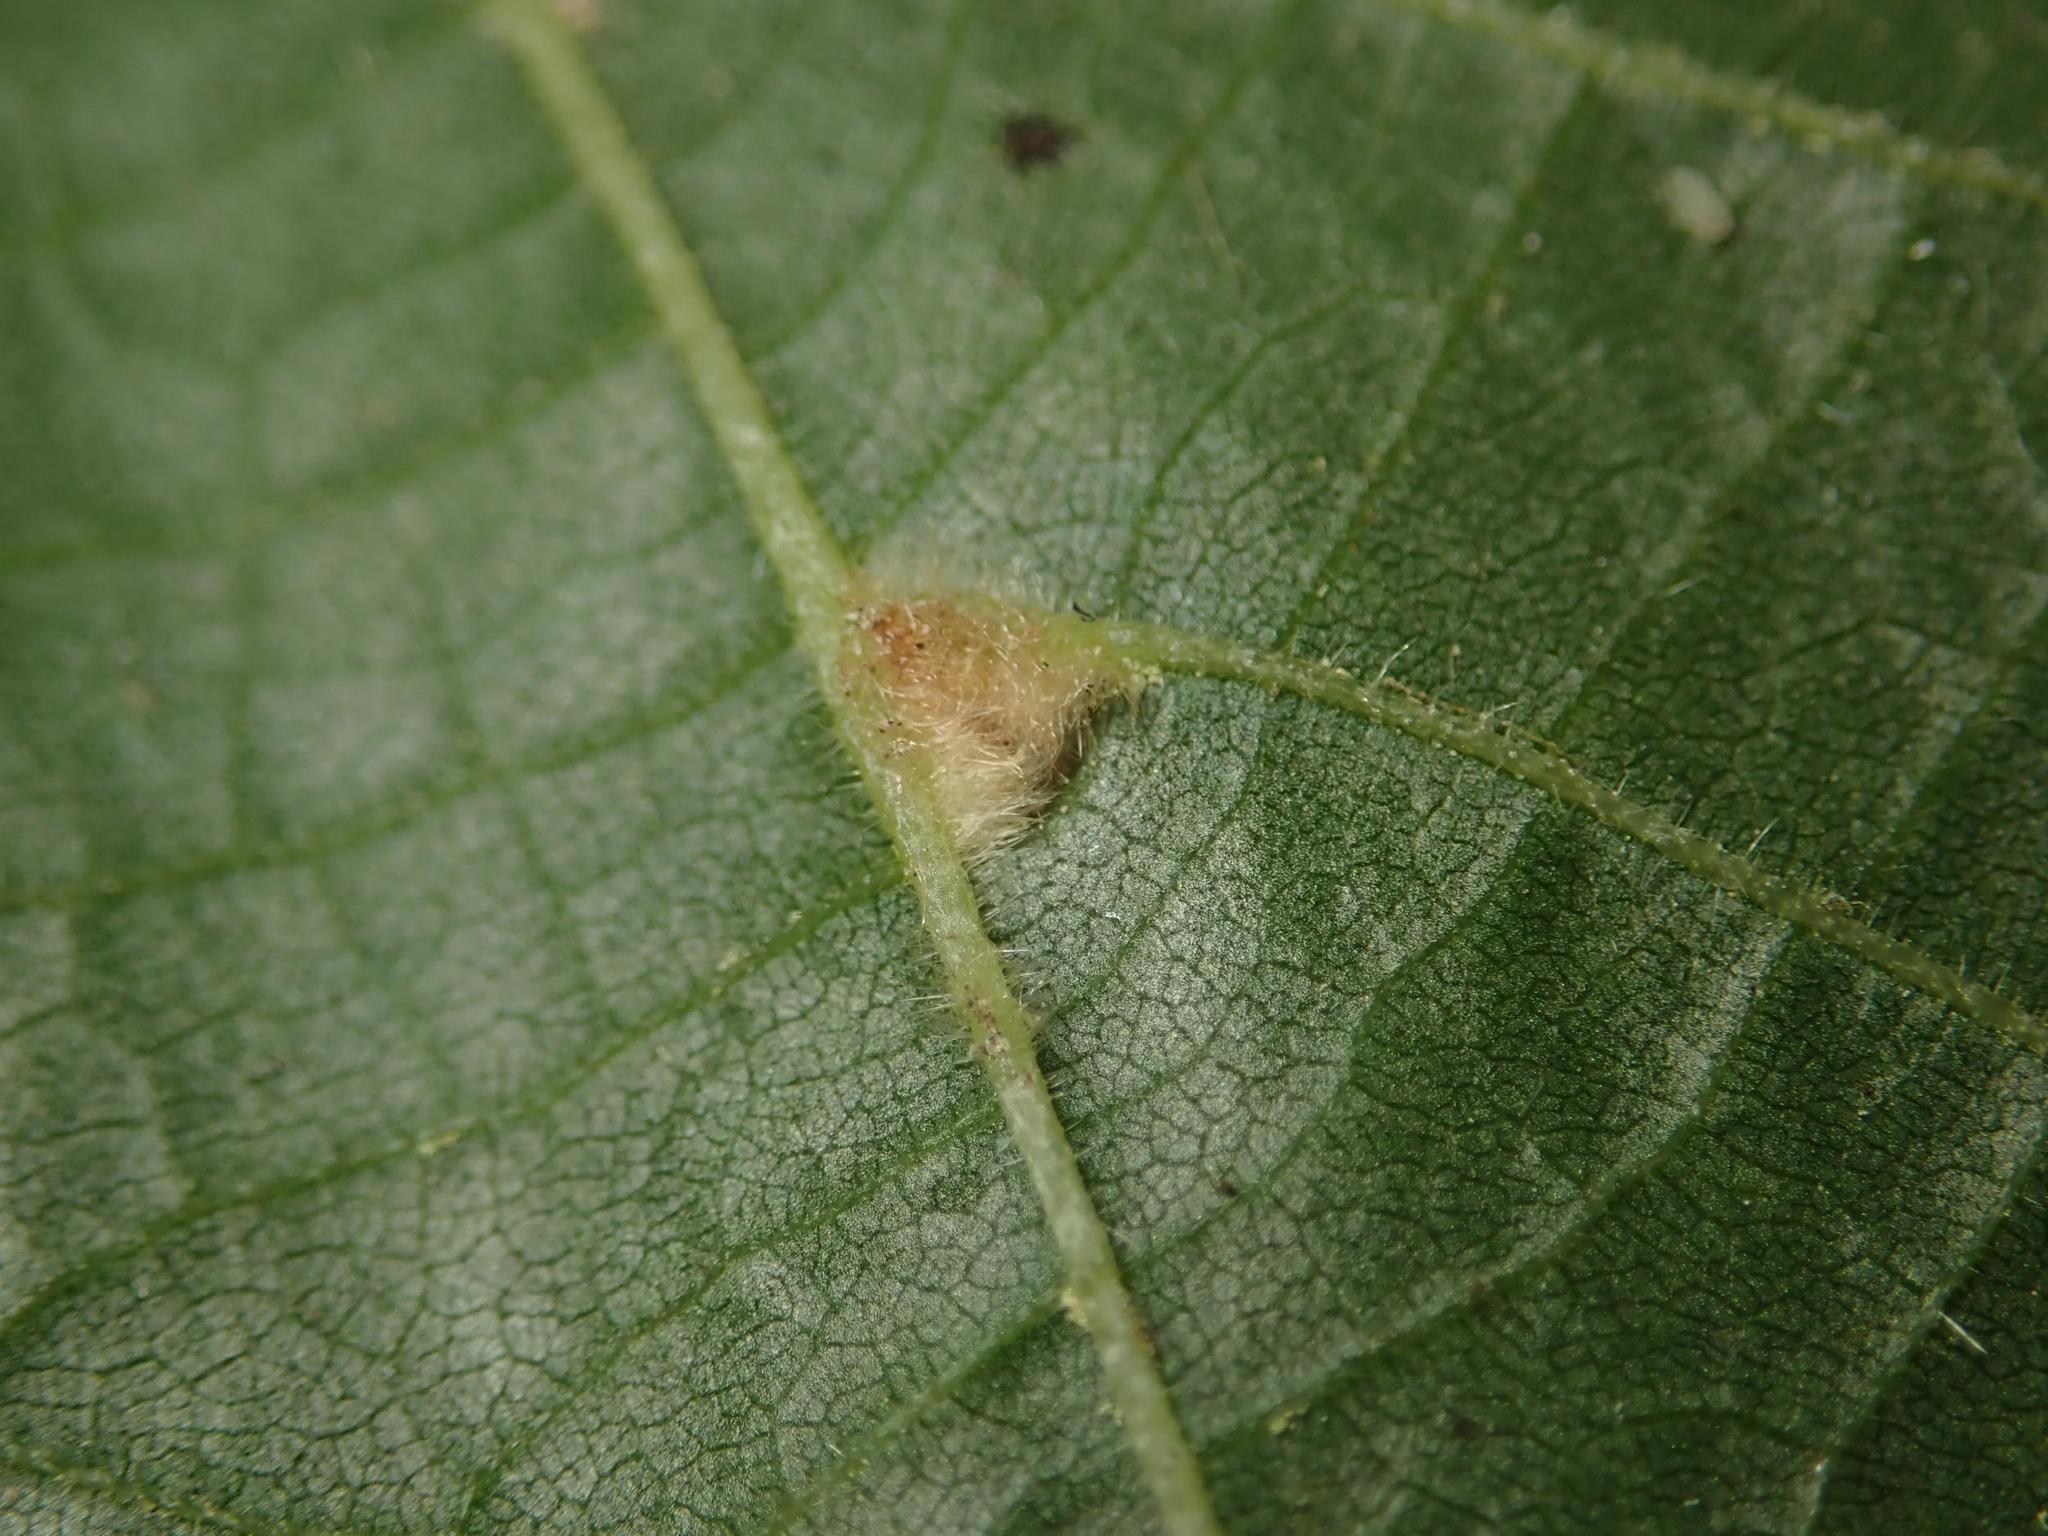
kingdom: Animalia
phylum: Arthropoda
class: Arachnida
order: Trombidiformes
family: Eriophyidae
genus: Eriophyes
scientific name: Eriophyes exilis
